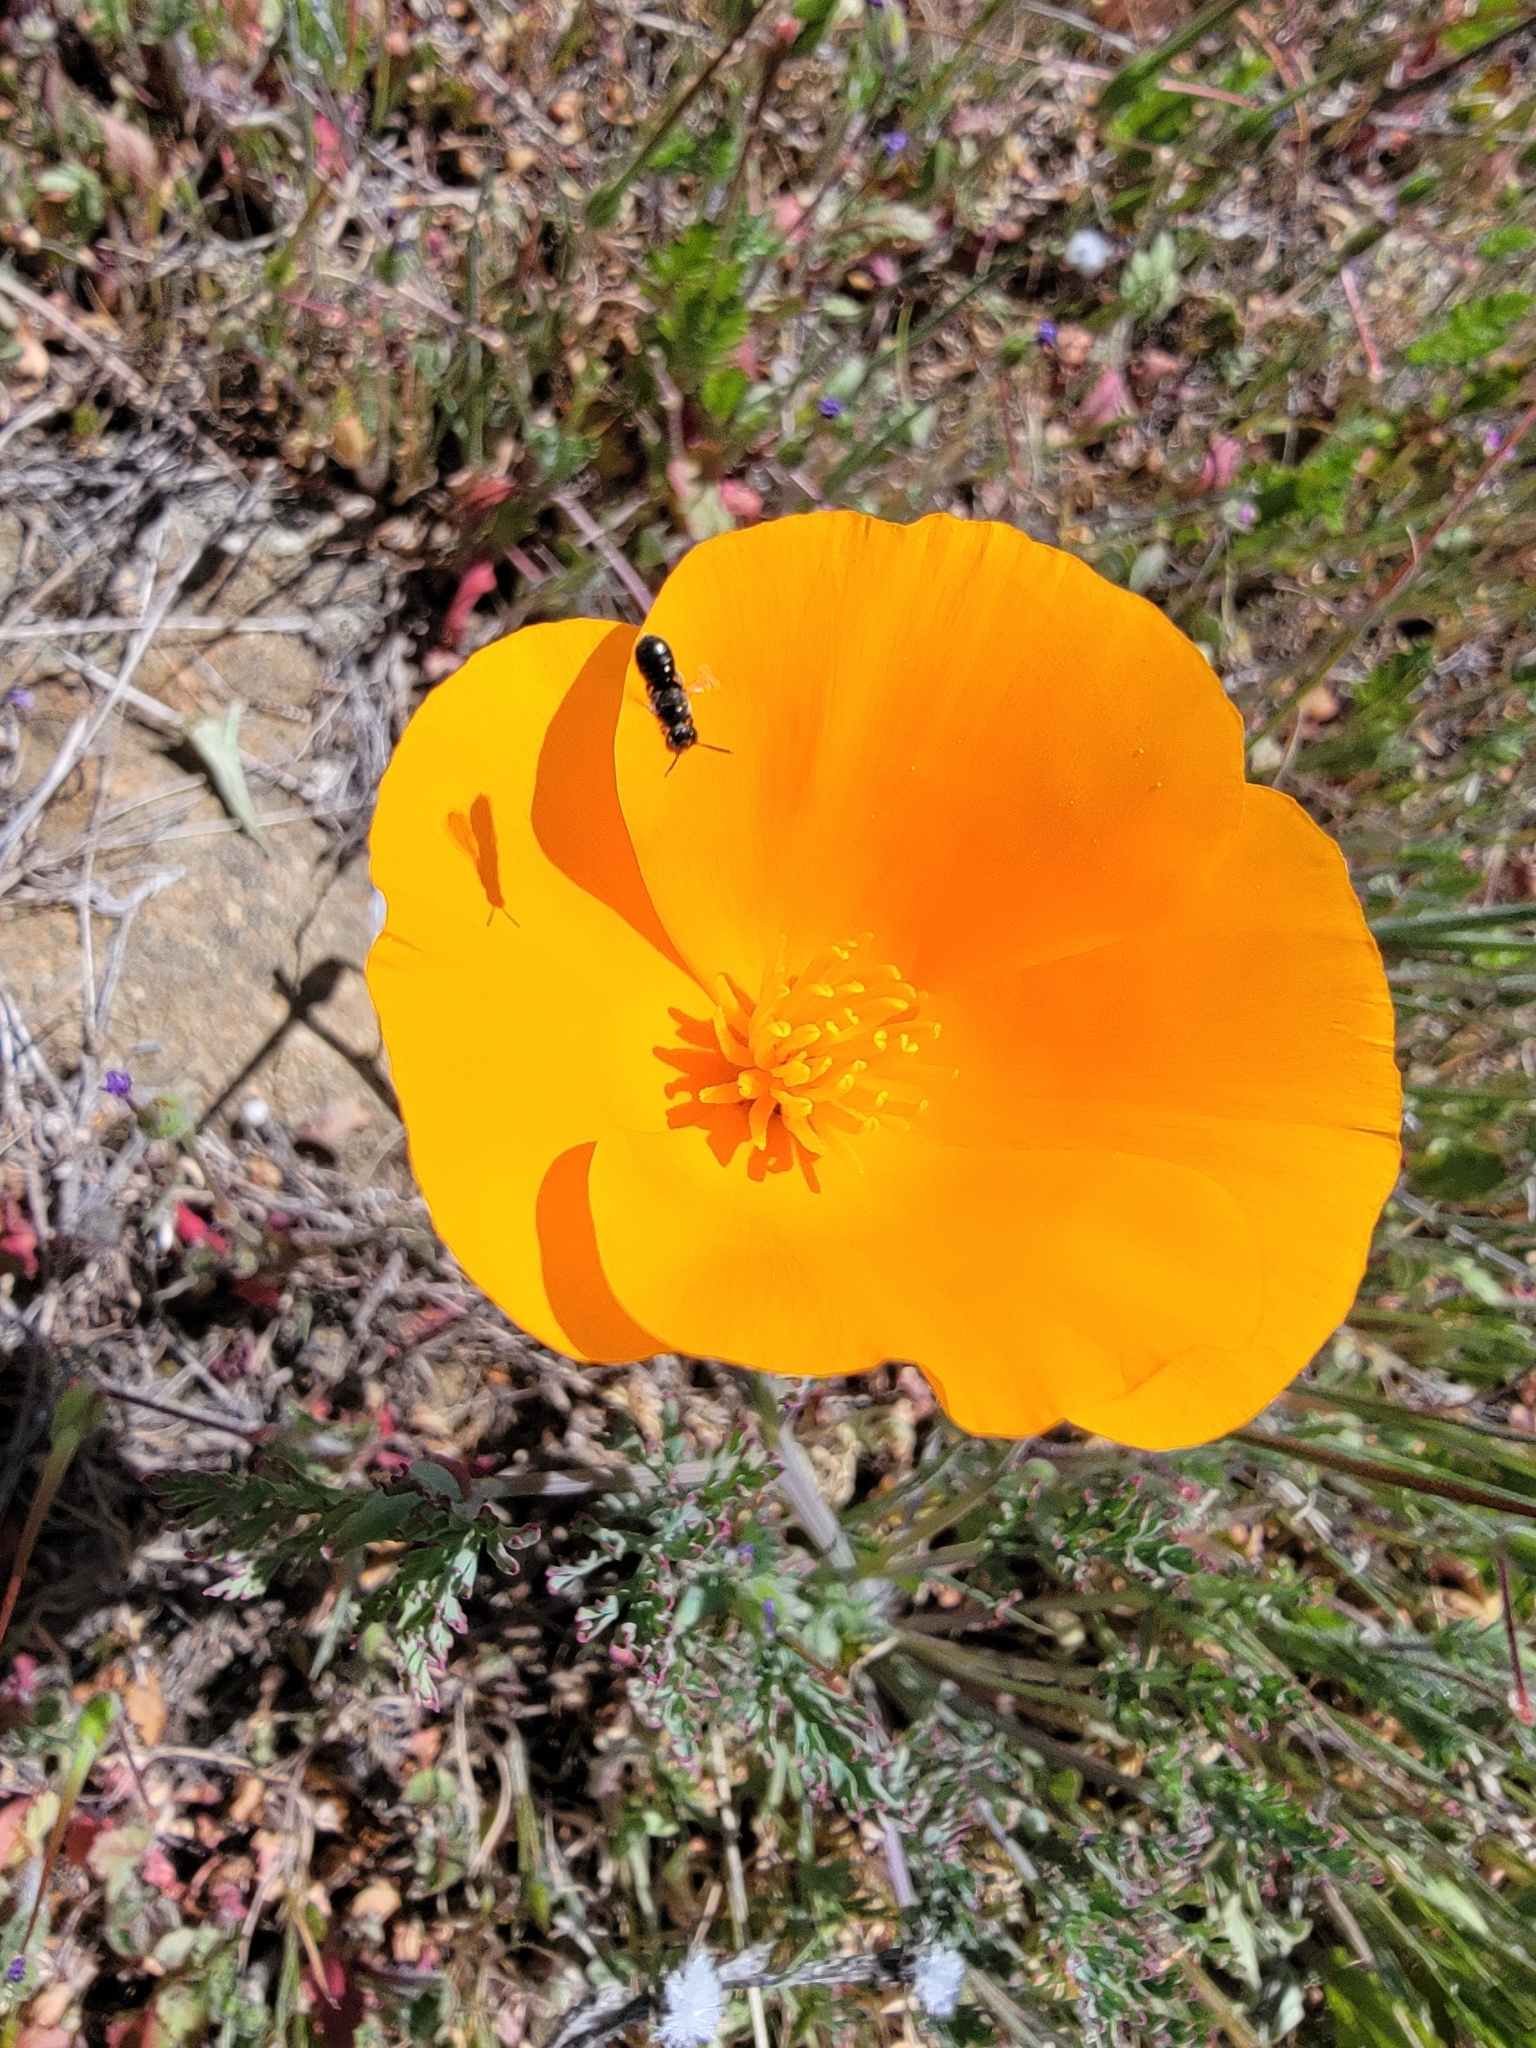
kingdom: Plantae
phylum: Tracheophyta
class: Magnoliopsida
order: Ranunculales
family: Papaveraceae
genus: Eschscholzia
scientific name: Eschscholzia californica
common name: California poppy
